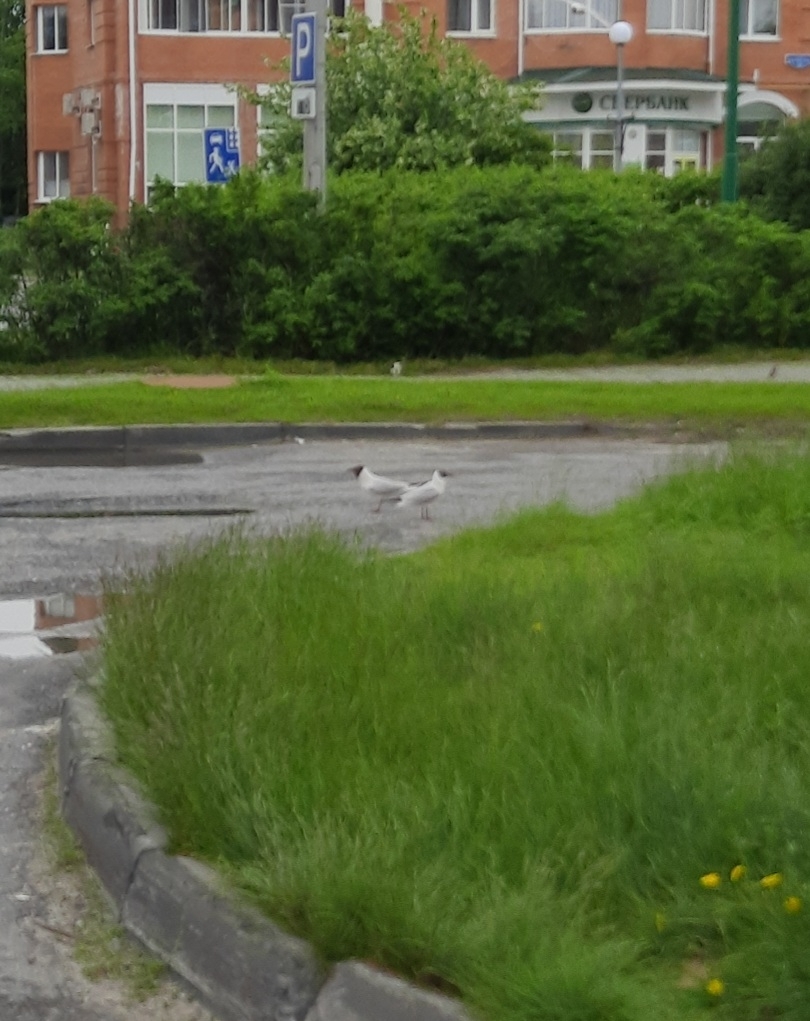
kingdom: Animalia
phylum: Chordata
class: Aves
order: Charadriiformes
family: Laridae
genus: Chroicocephalus
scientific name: Chroicocephalus ridibundus
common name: Black-headed gull
